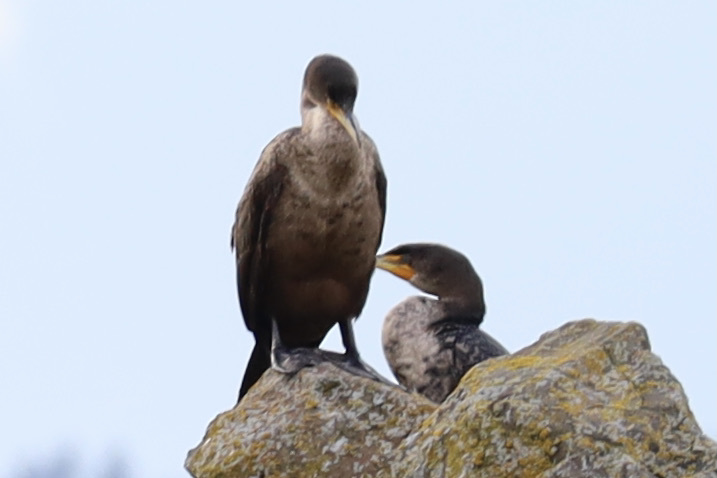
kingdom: Animalia
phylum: Chordata
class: Aves
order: Suliformes
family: Phalacrocoracidae
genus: Phalacrocorax
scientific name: Phalacrocorax auritus
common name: Double-crested cormorant
